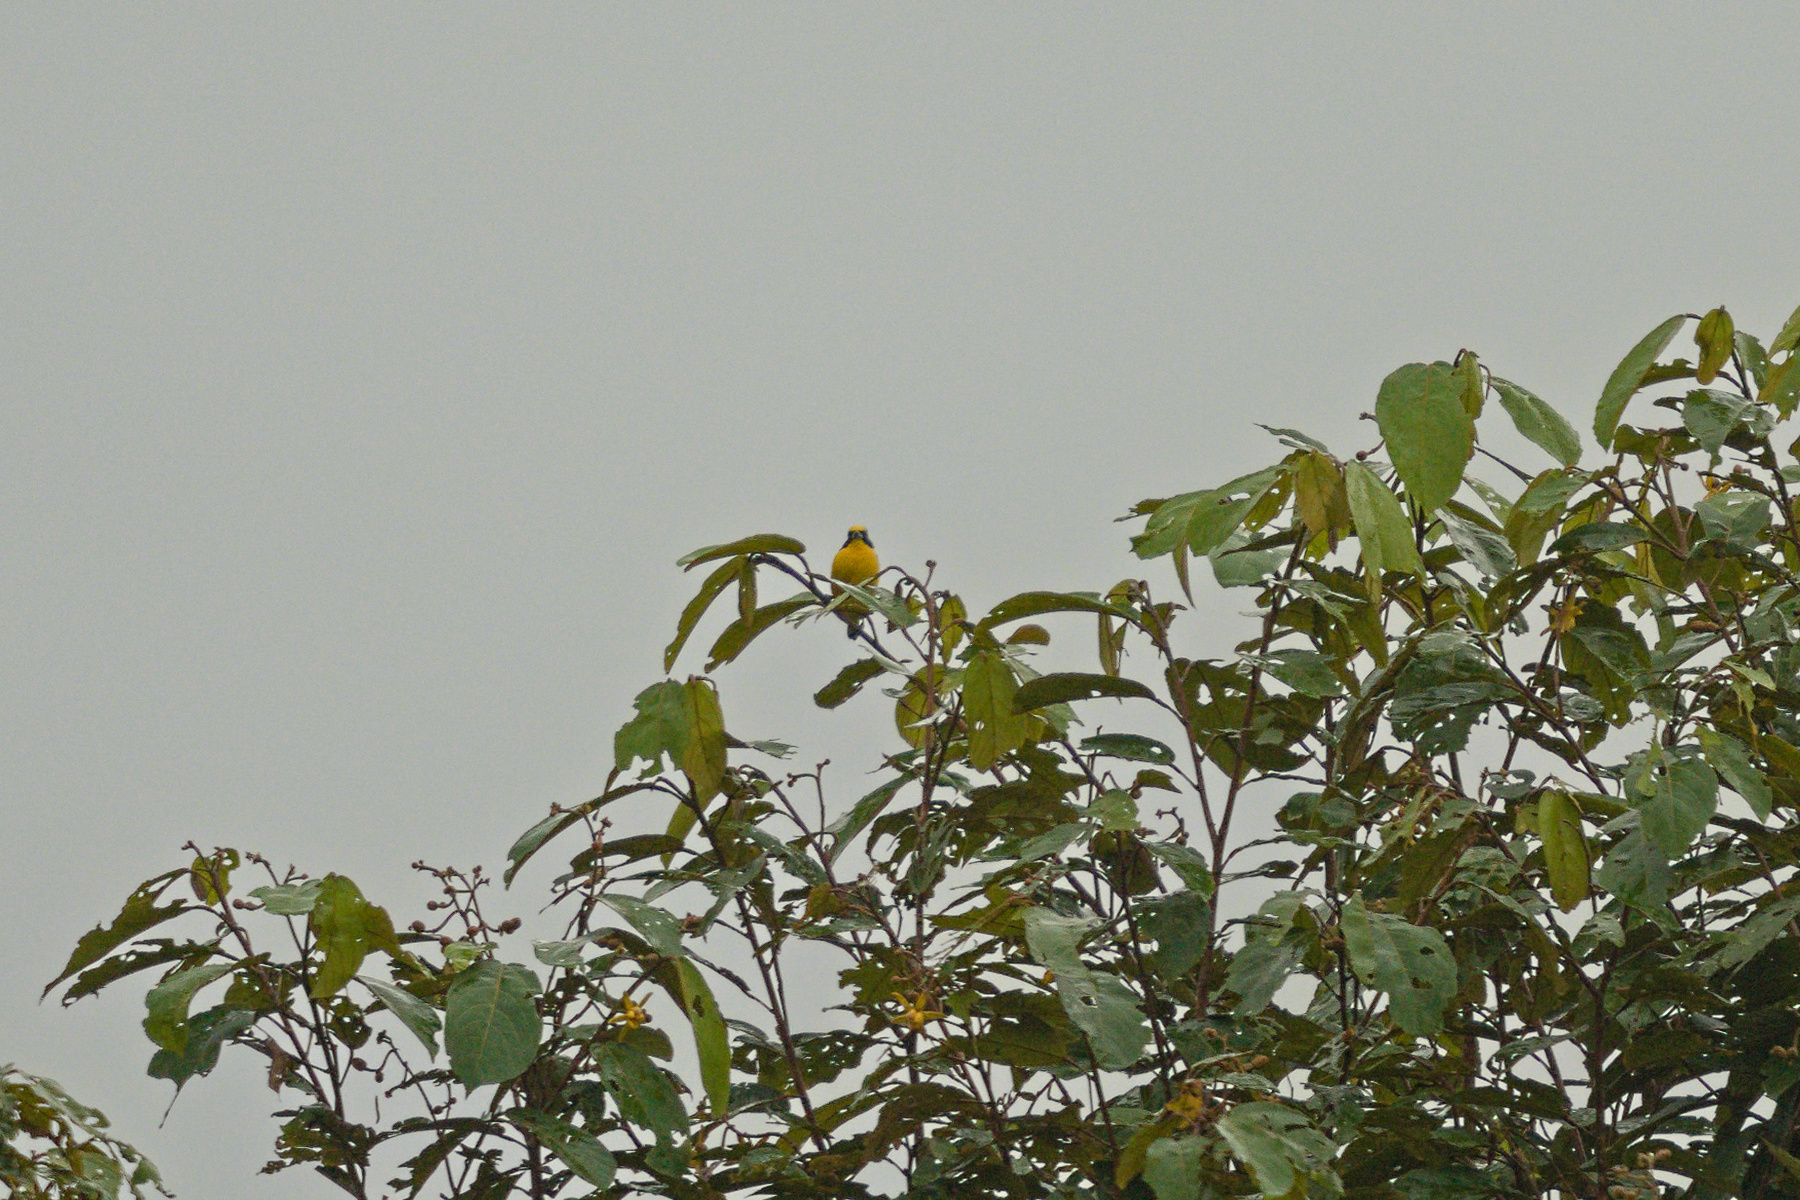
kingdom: Animalia
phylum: Chordata
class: Aves
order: Passeriformes
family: Fringillidae
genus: Euphonia
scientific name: Euphonia hirundinacea
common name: Yellow-throated euphonia
